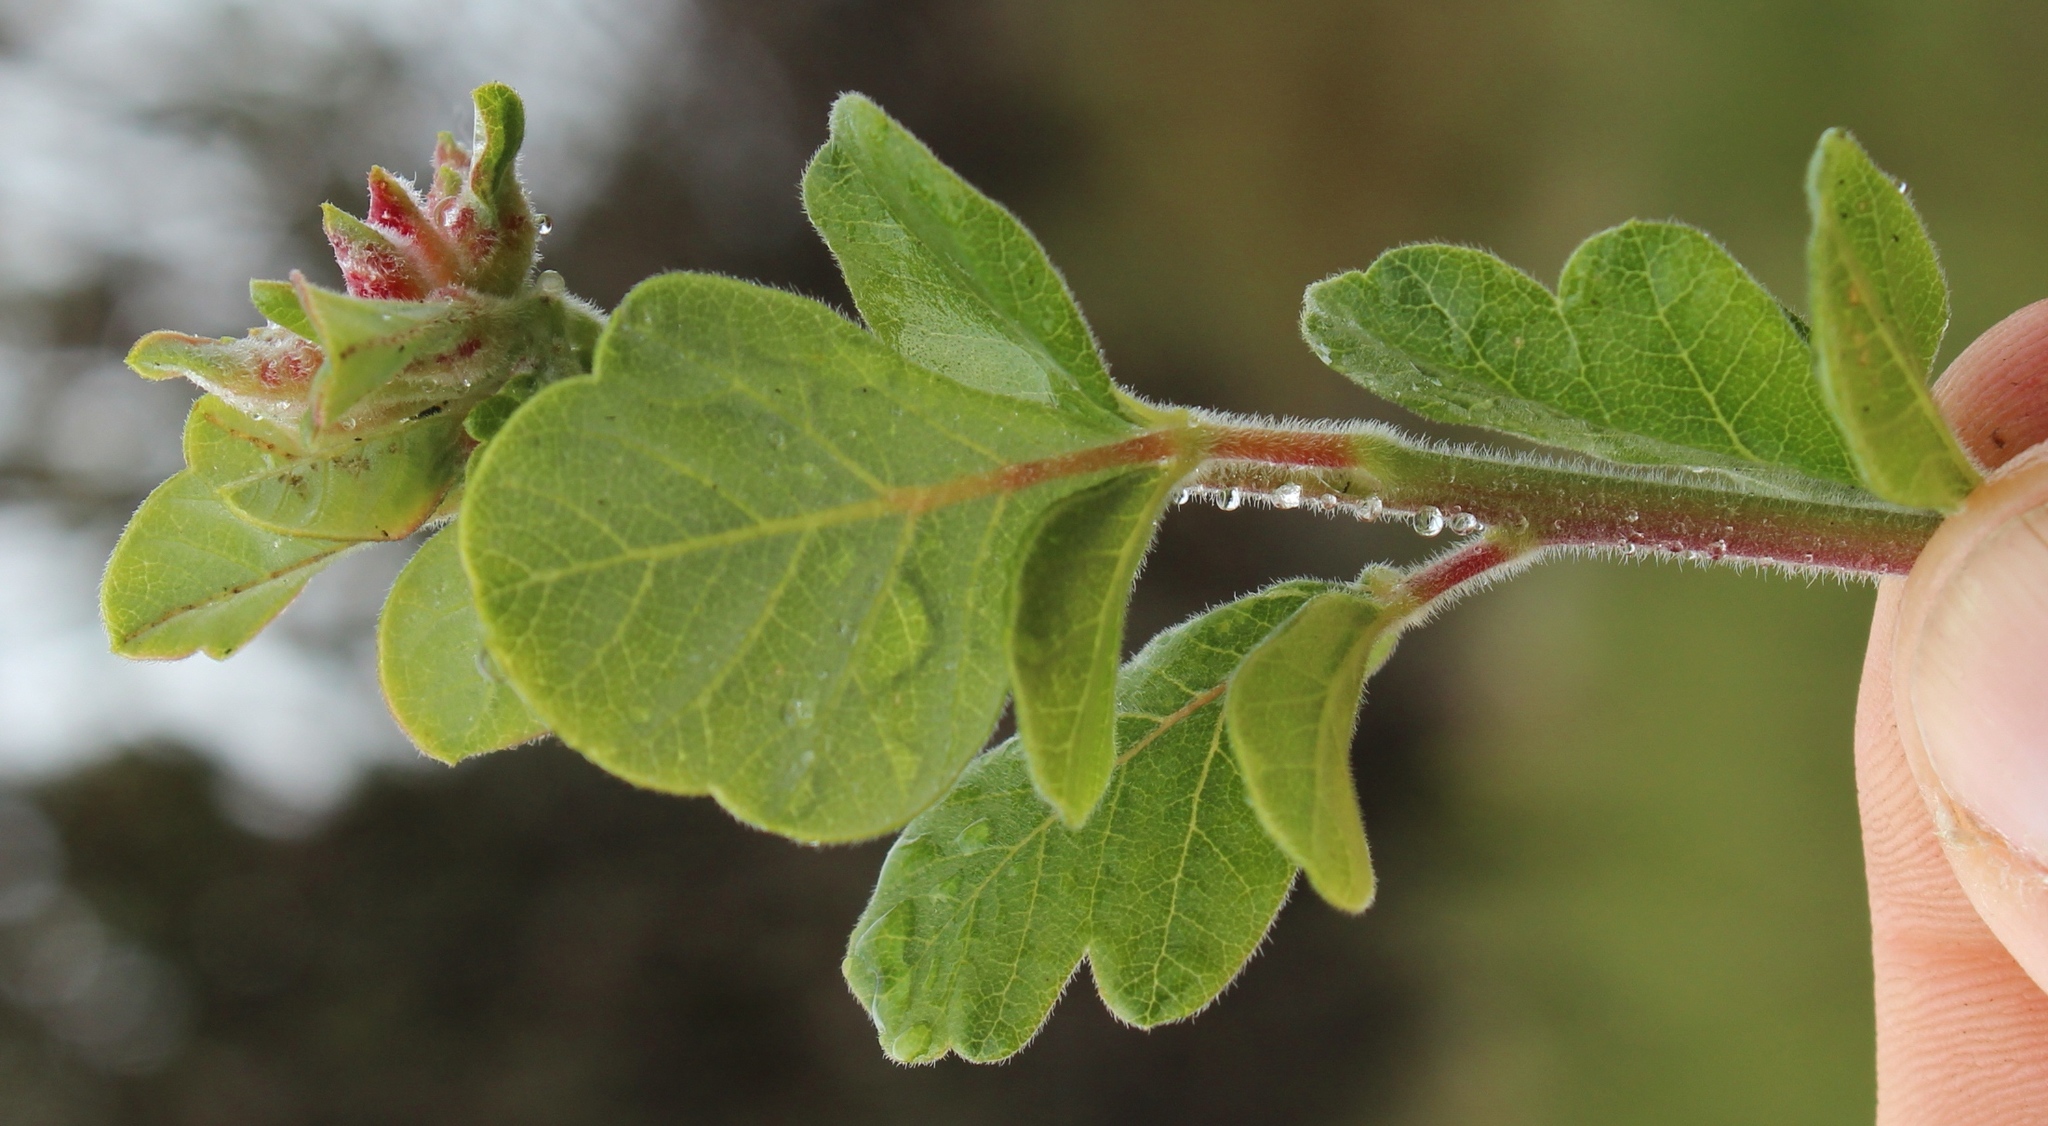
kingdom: Plantae
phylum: Tracheophyta
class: Magnoliopsida
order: Sapindales
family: Anacardiaceae
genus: Searsia
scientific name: Searsia tomentosa
